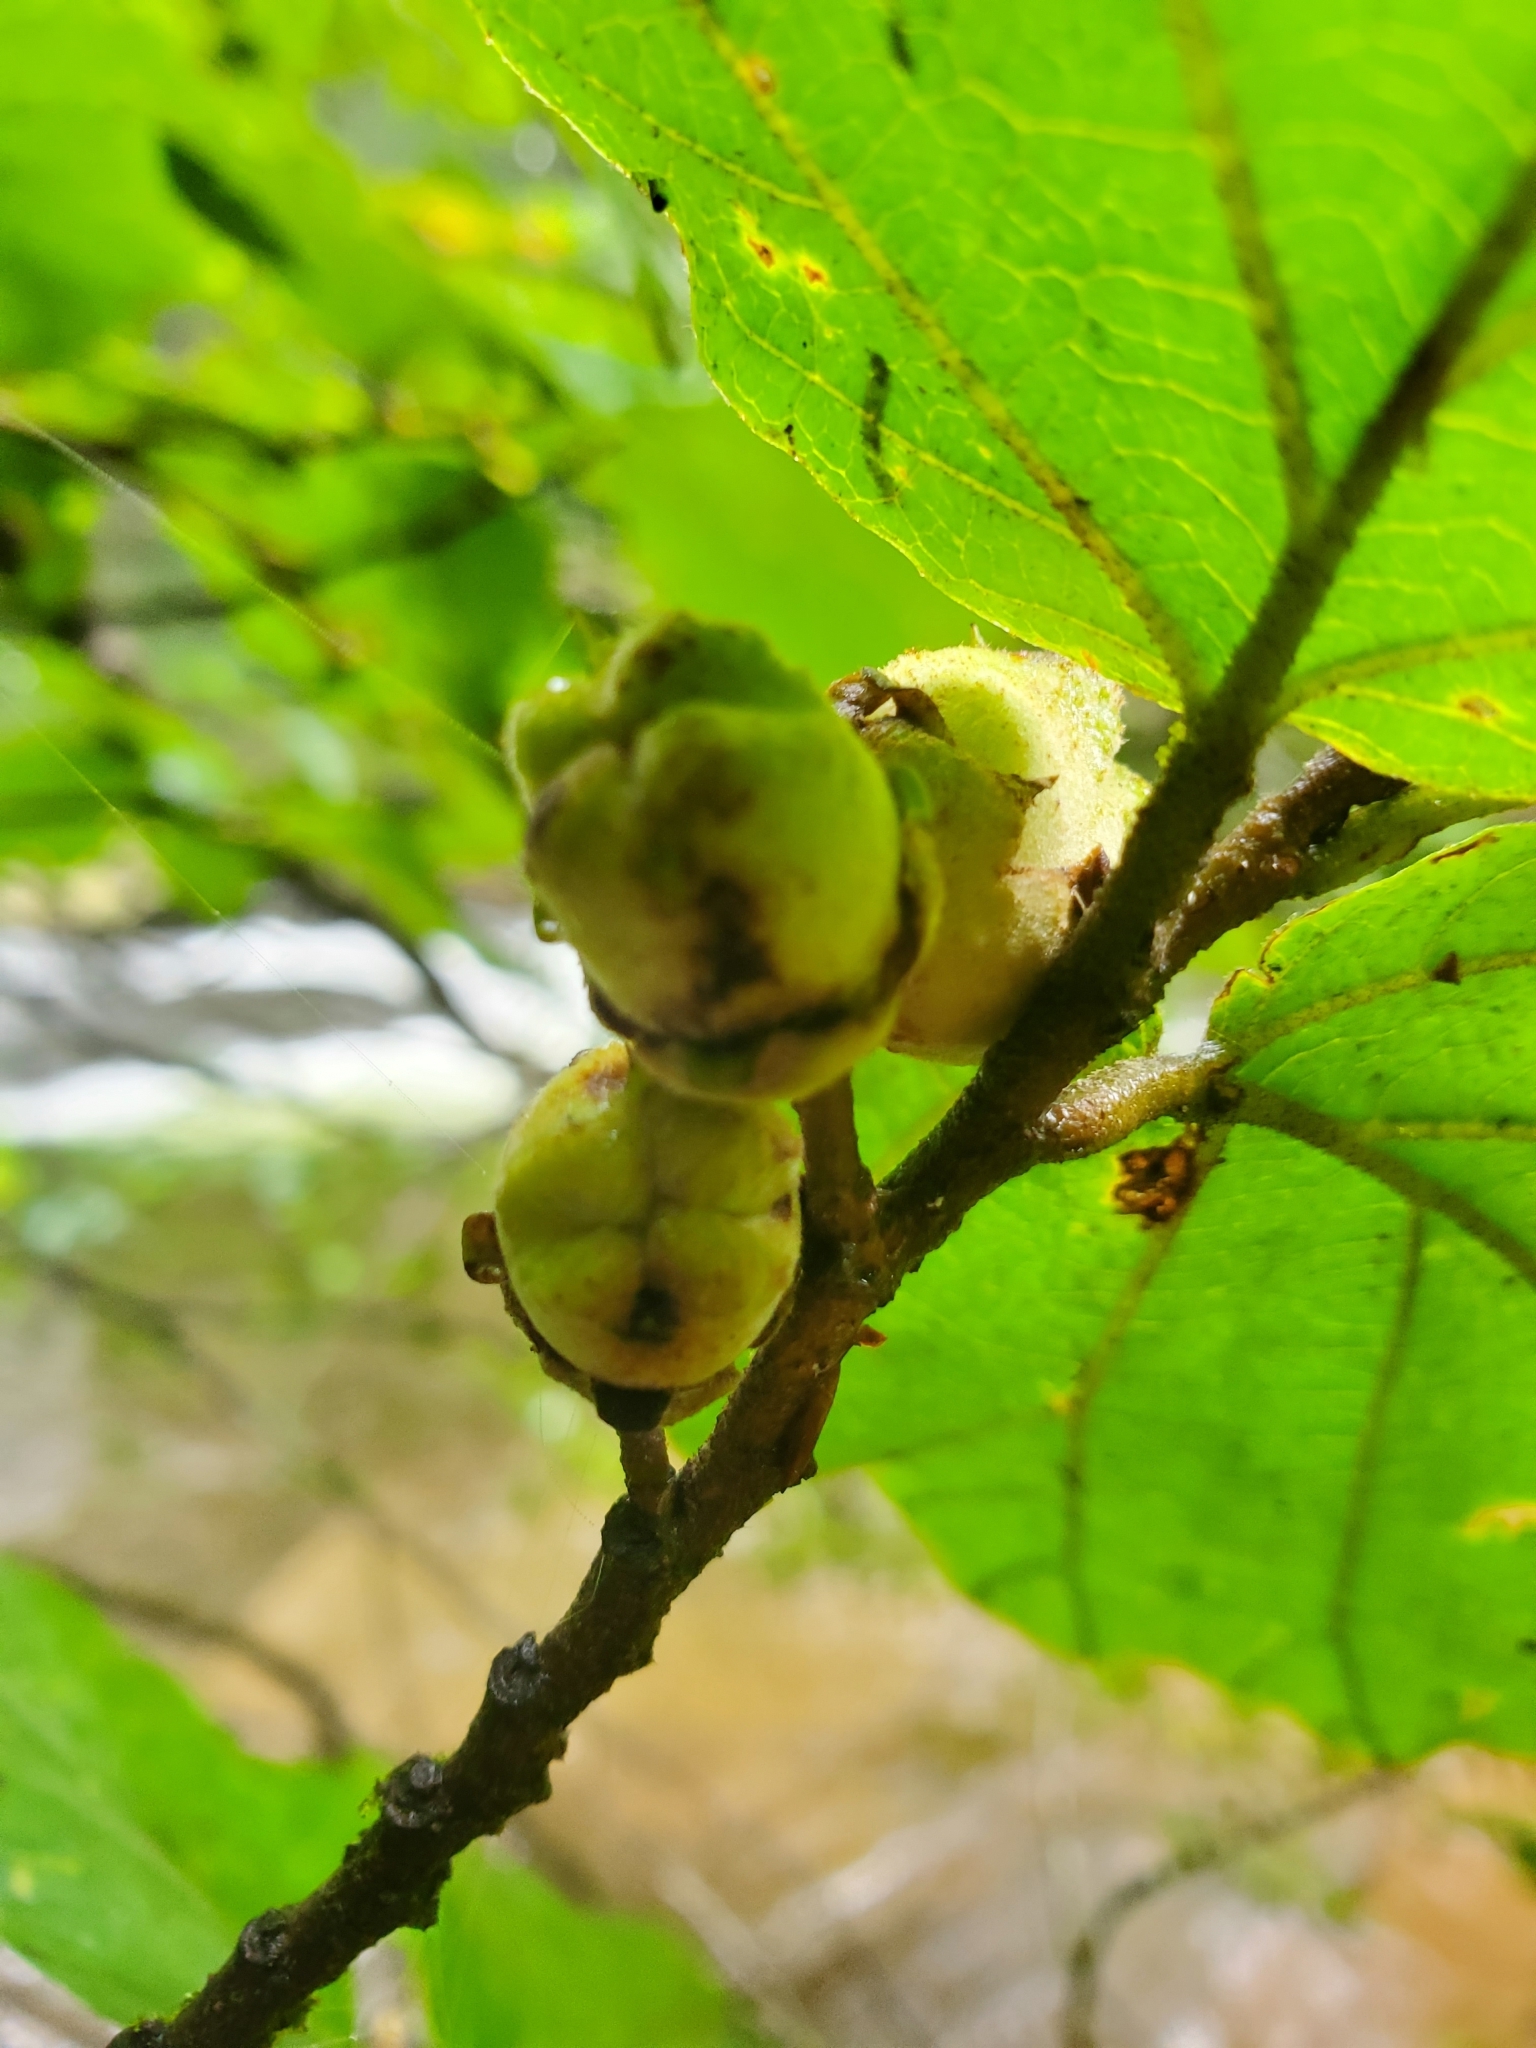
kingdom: Plantae
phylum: Tracheophyta
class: Magnoliopsida
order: Saxifragales
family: Hamamelidaceae
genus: Hamamelis
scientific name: Hamamelis virginiana
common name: Witch-hazel
